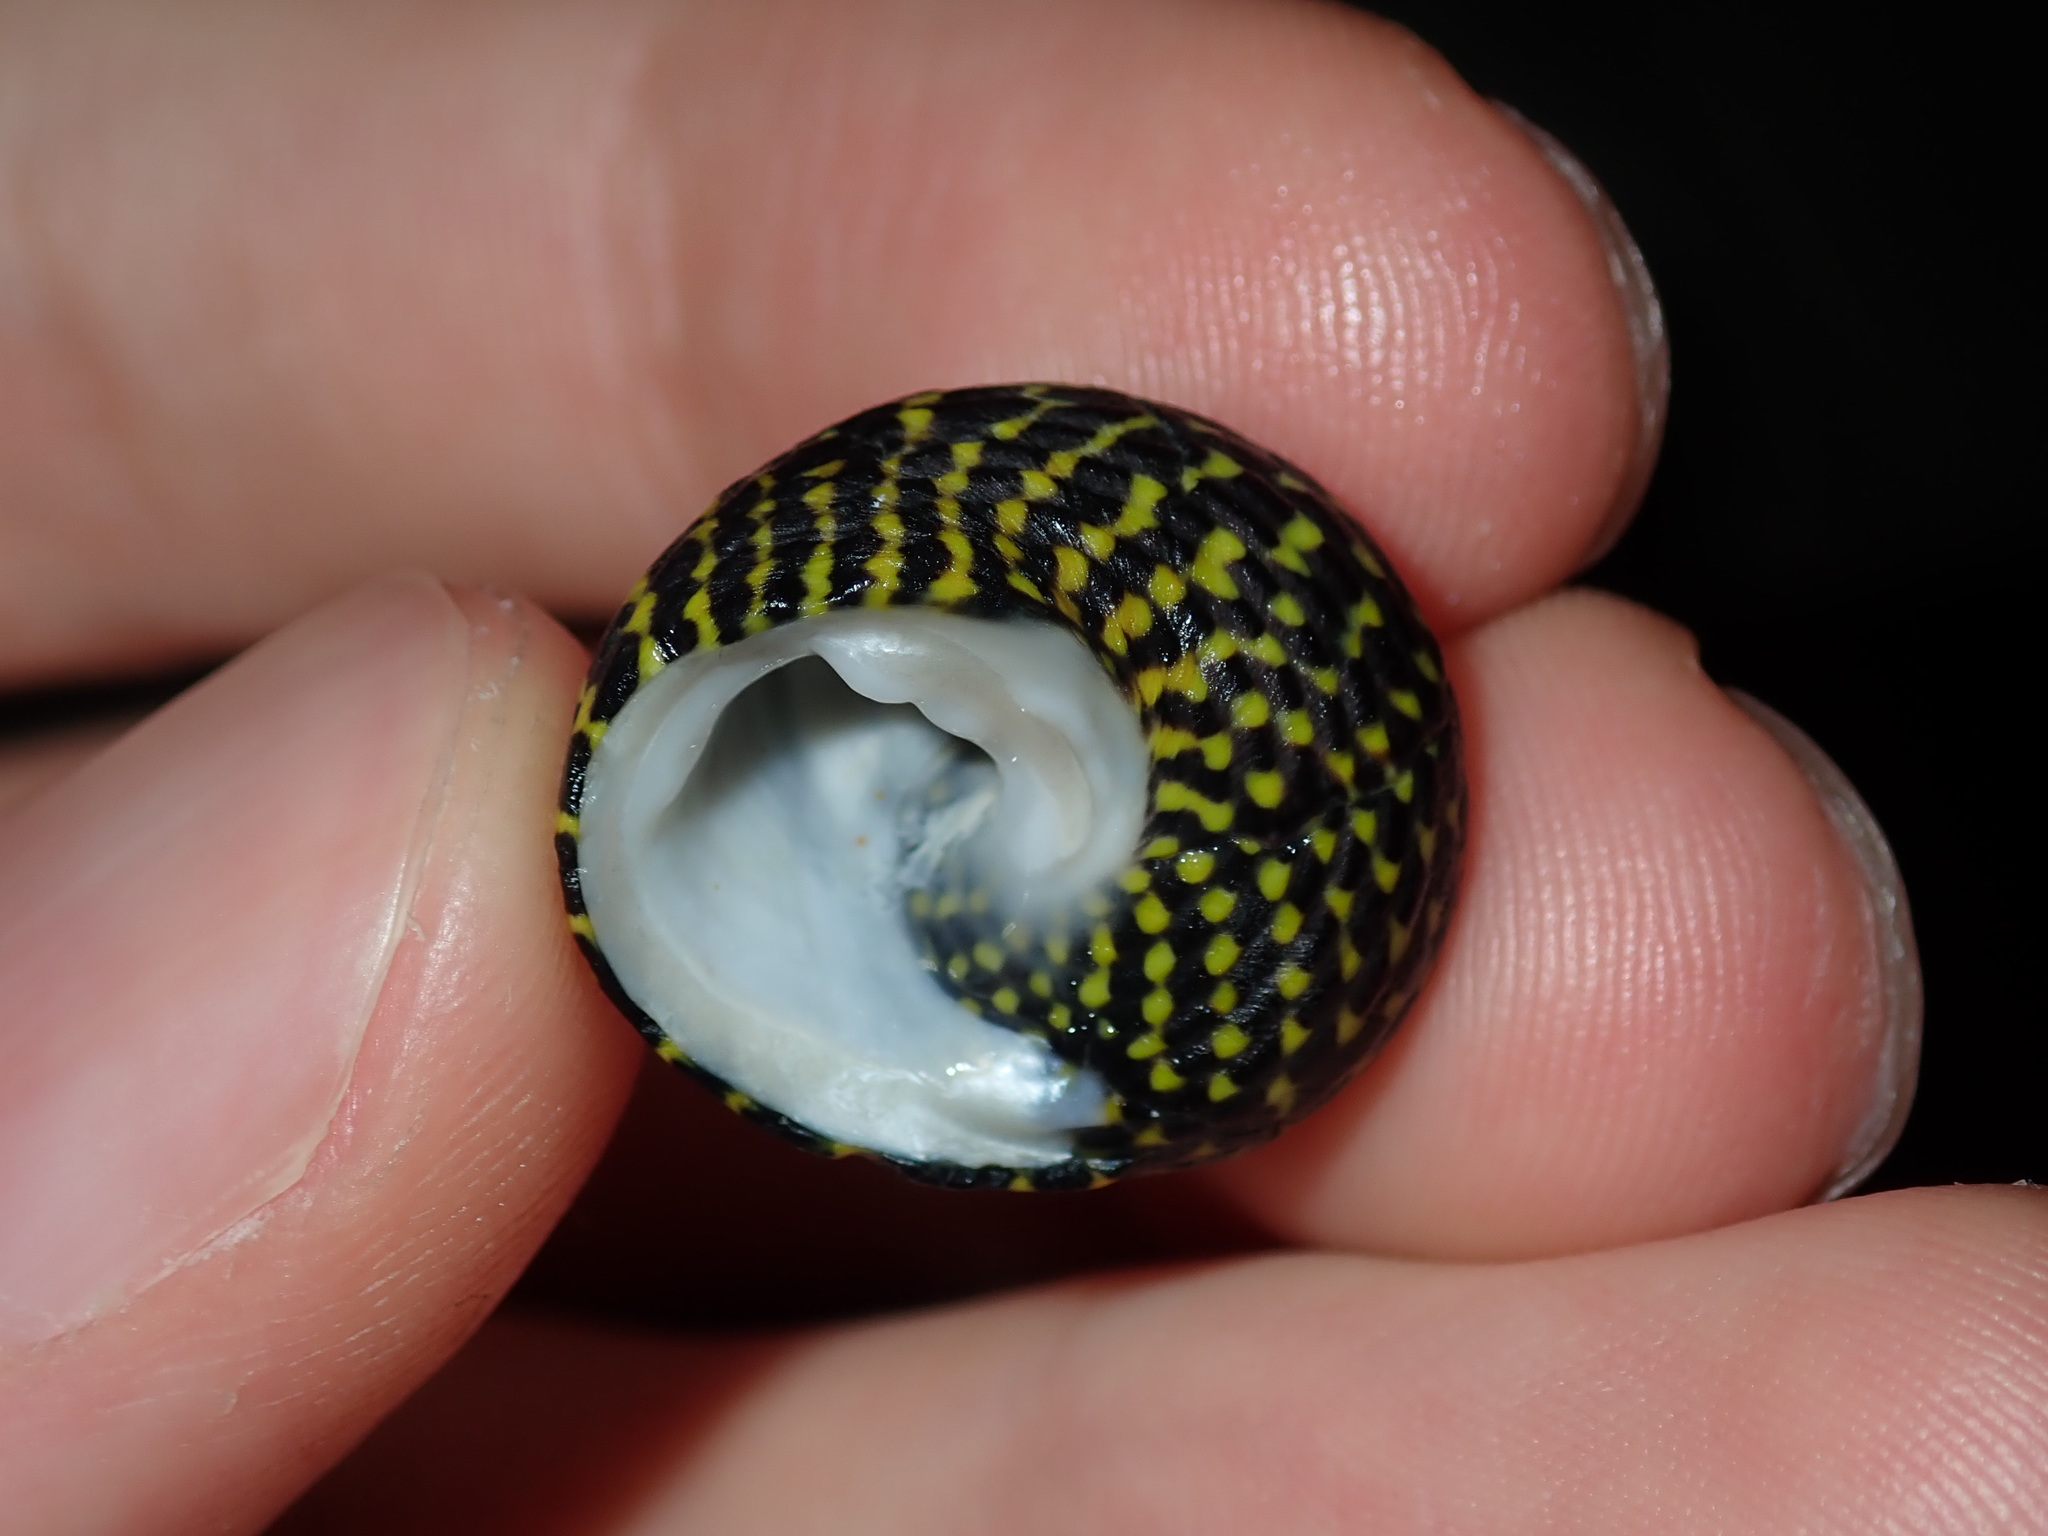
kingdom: Animalia
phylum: Mollusca
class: Gastropoda
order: Trochida
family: Trochidae
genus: Diloma
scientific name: Diloma concameratum
